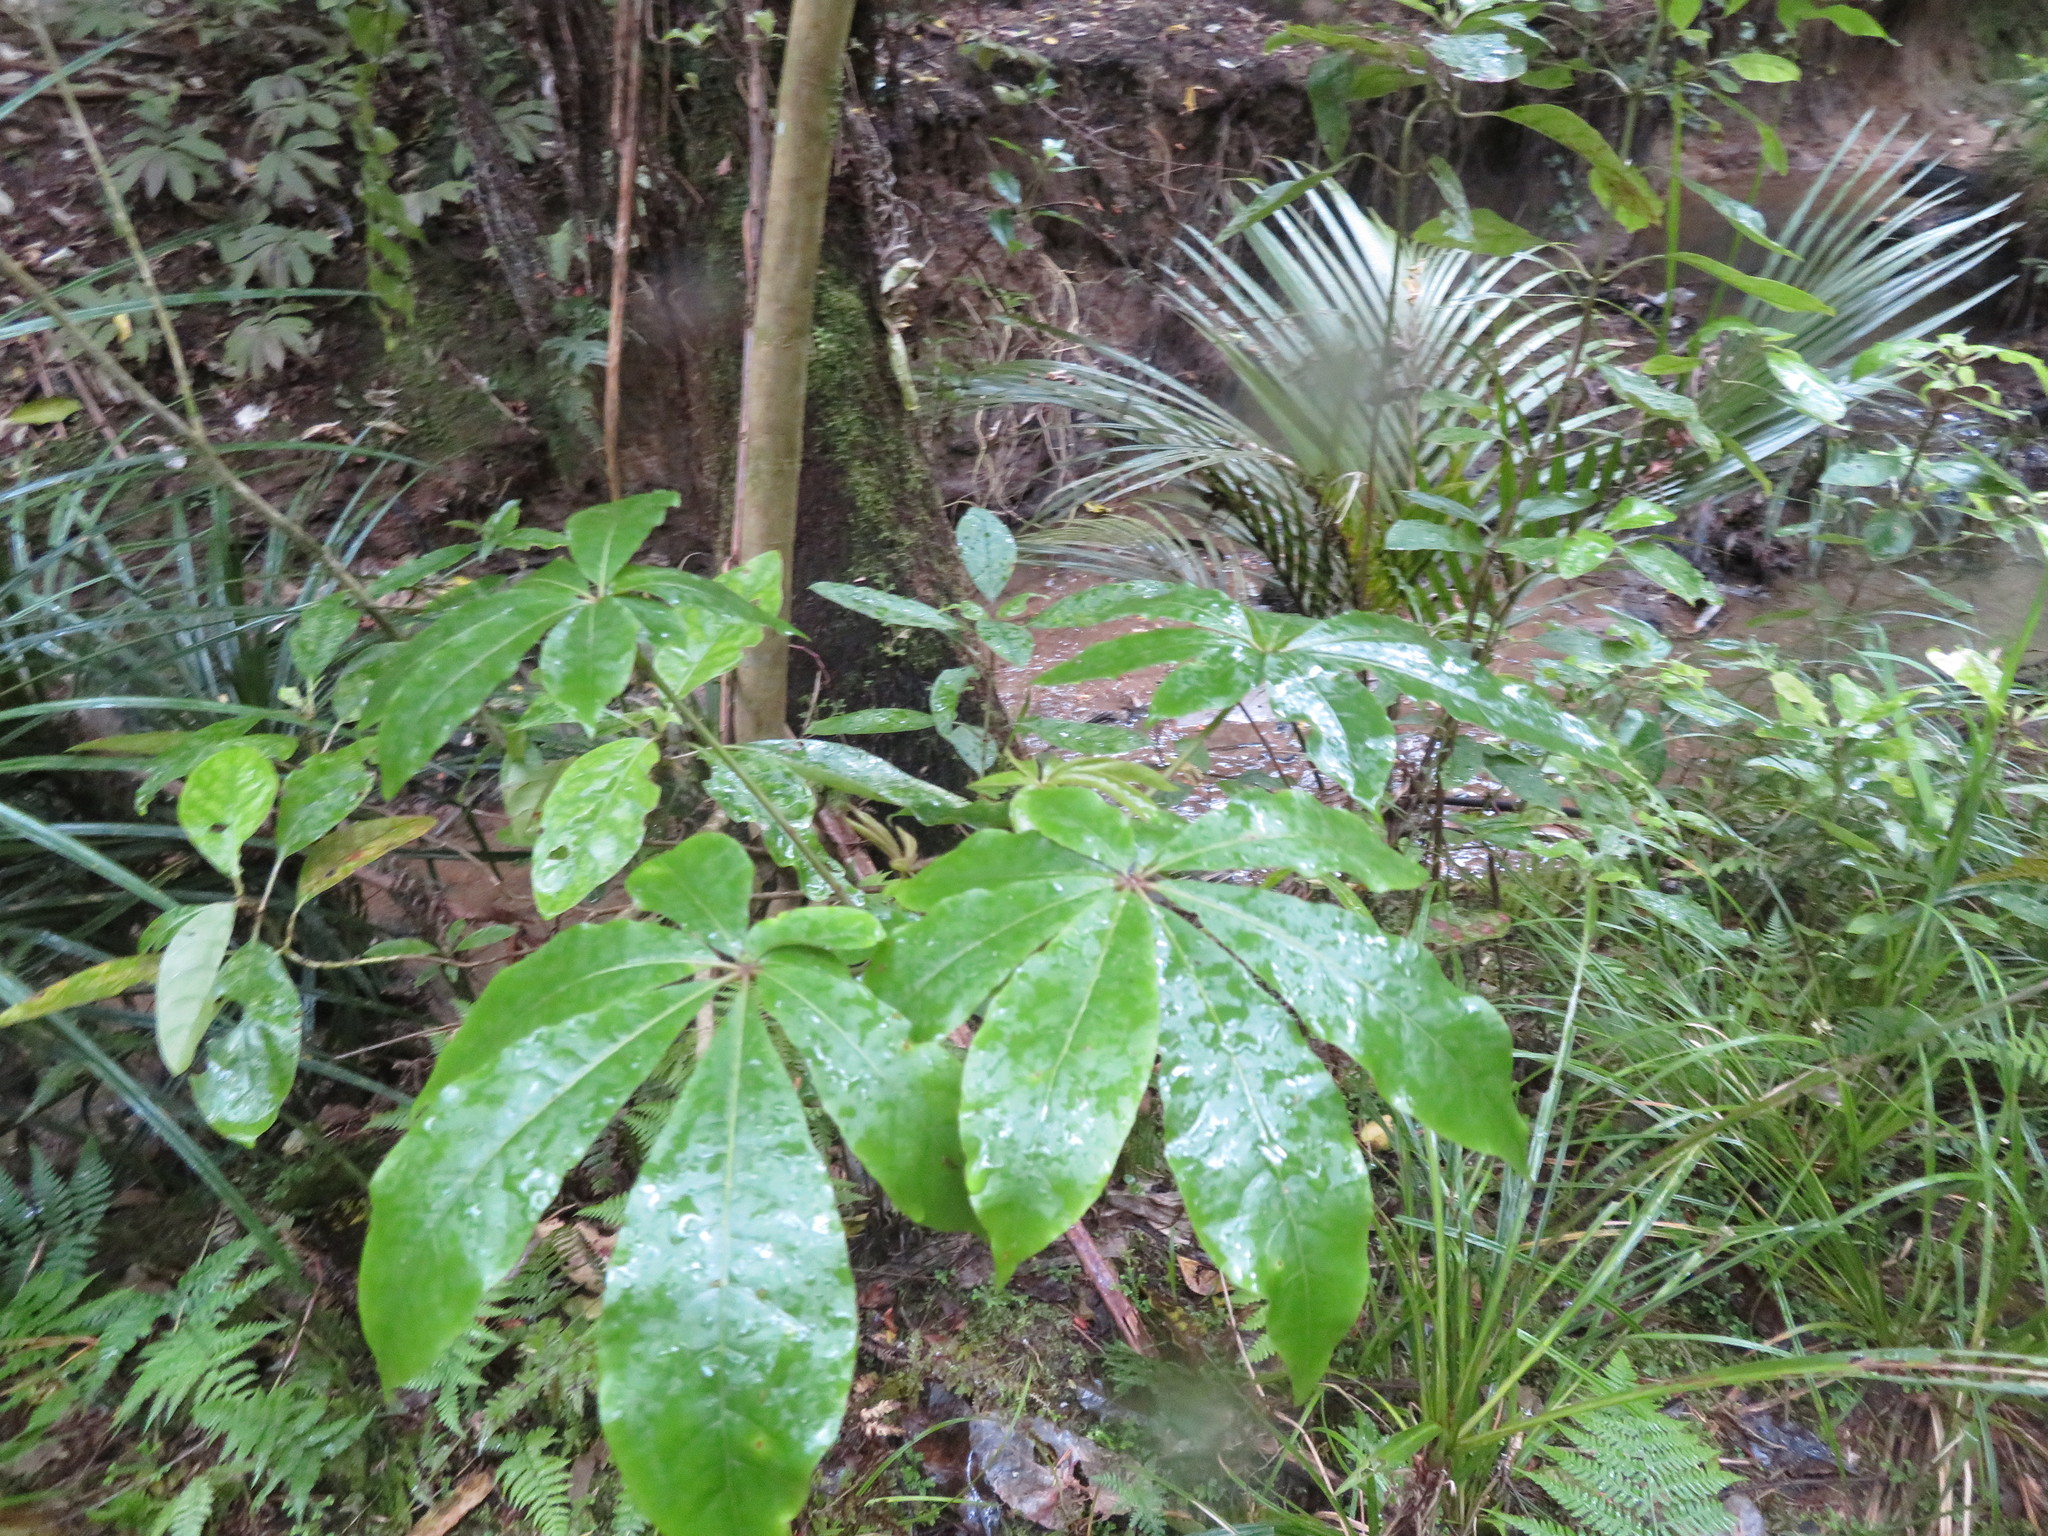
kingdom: Plantae
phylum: Tracheophyta
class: Magnoliopsida
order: Apiales
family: Araliaceae
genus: Schefflera
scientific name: Schefflera digitata
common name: Pate
